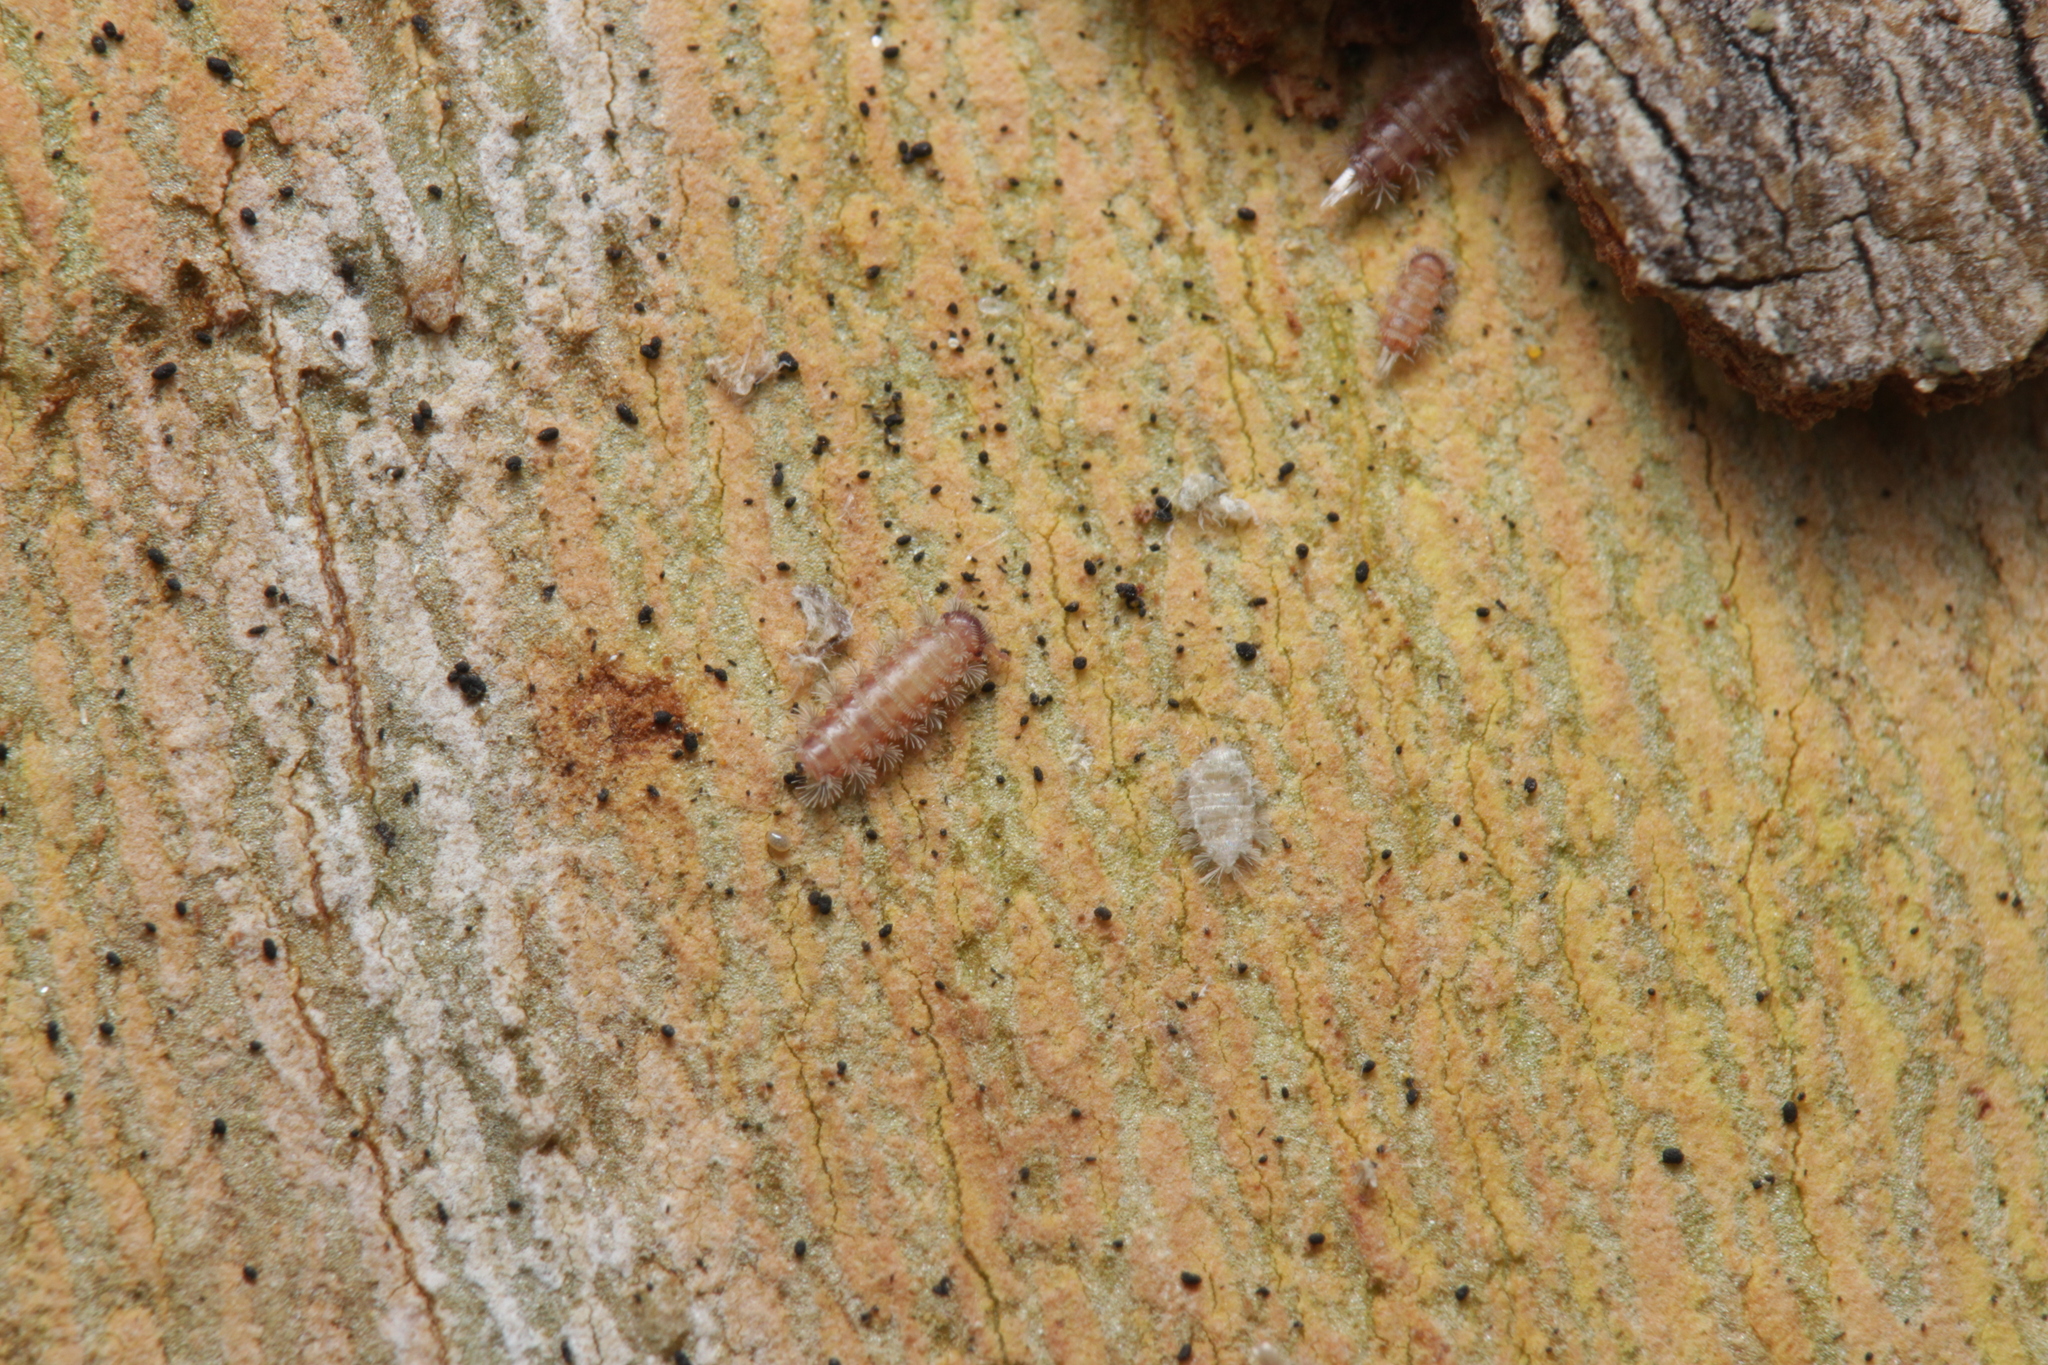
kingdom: Animalia
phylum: Arthropoda
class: Diplopoda
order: Polyxenida
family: Polyxenidae
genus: Polyxenus
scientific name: Polyxenus lagurus
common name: Bristly millipede
